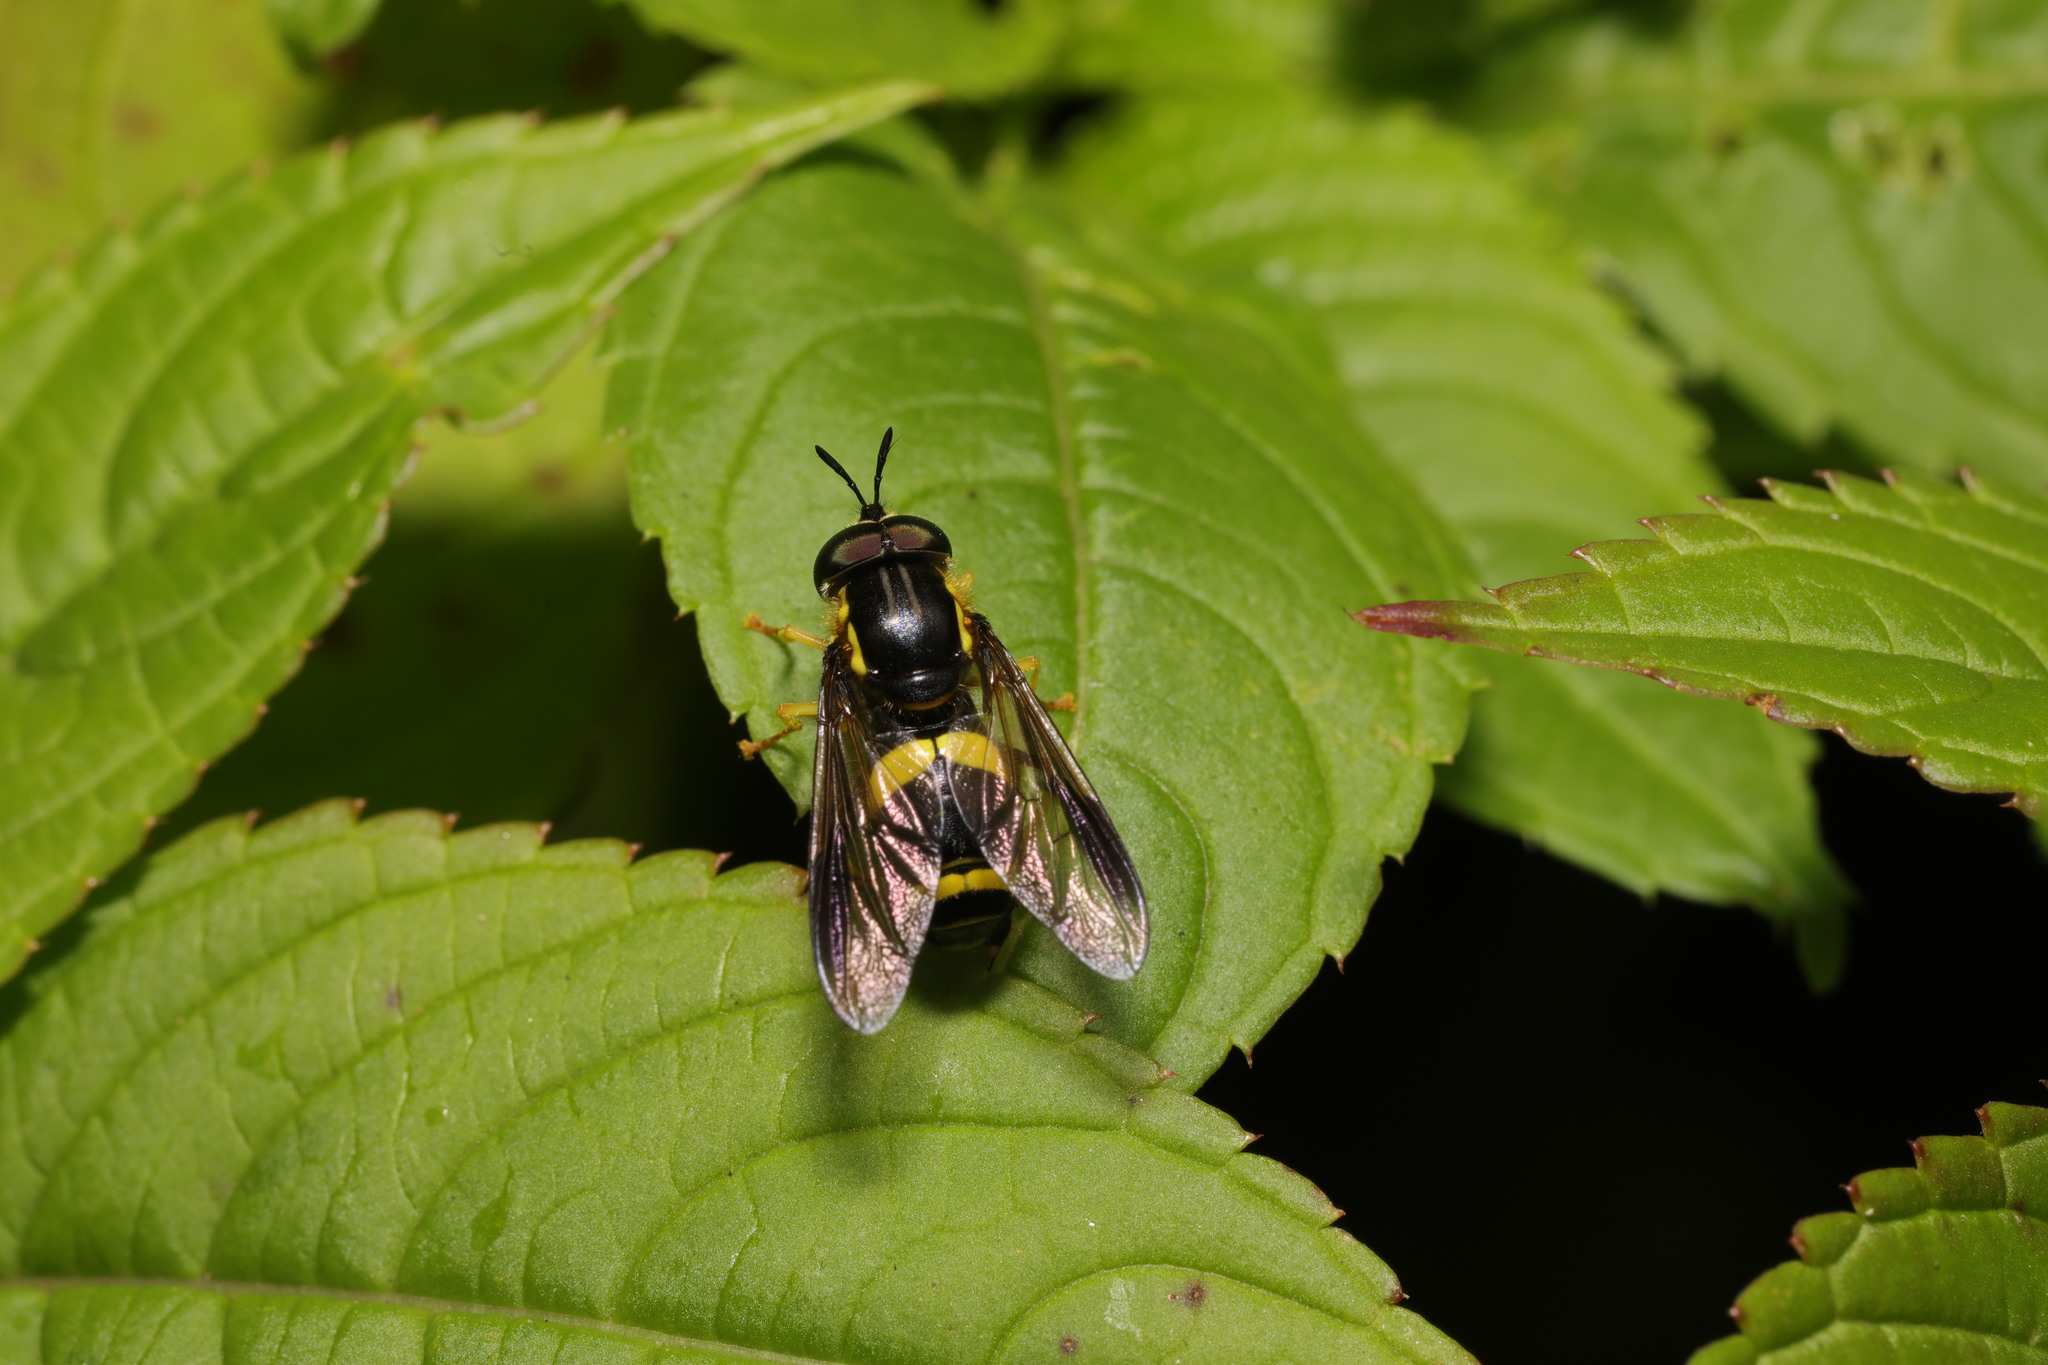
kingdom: Animalia
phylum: Arthropoda
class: Insecta
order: Diptera
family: Syrphidae
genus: Chrysotoxum
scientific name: Chrysotoxum bicincta
